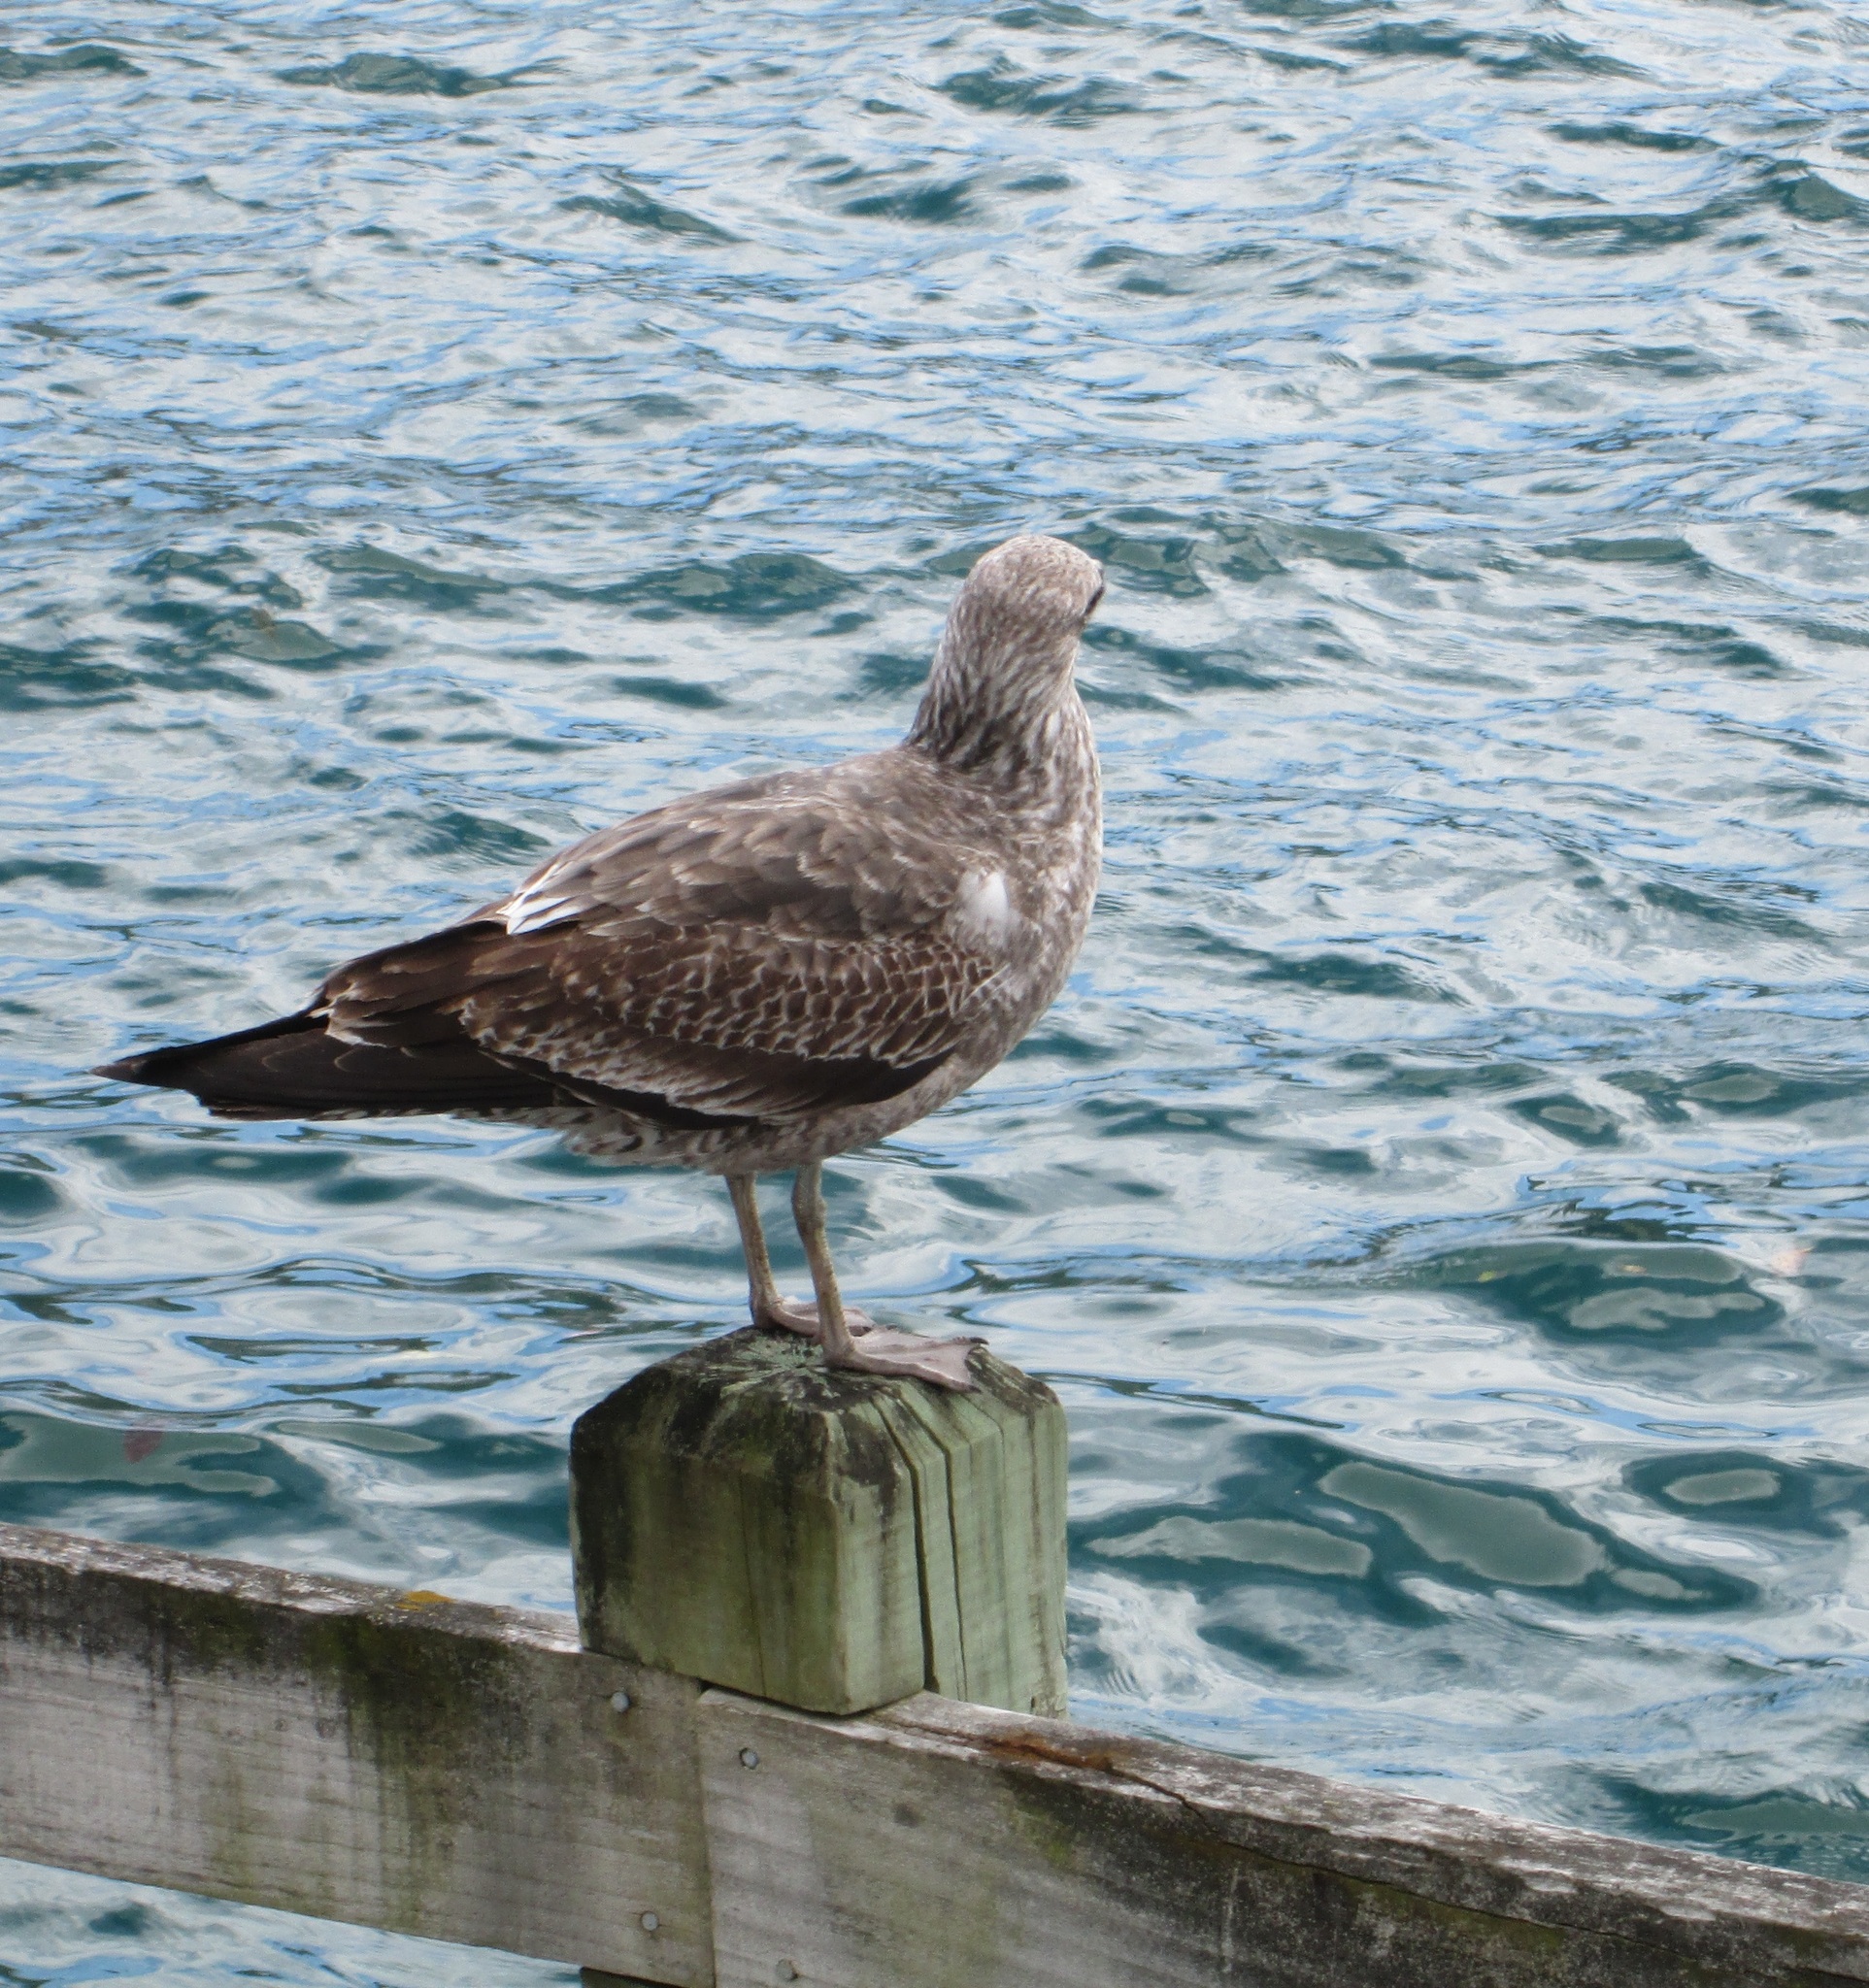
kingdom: Animalia
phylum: Chordata
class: Aves
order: Charadriiformes
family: Laridae
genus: Larus
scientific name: Larus dominicanus
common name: Kelp gull
